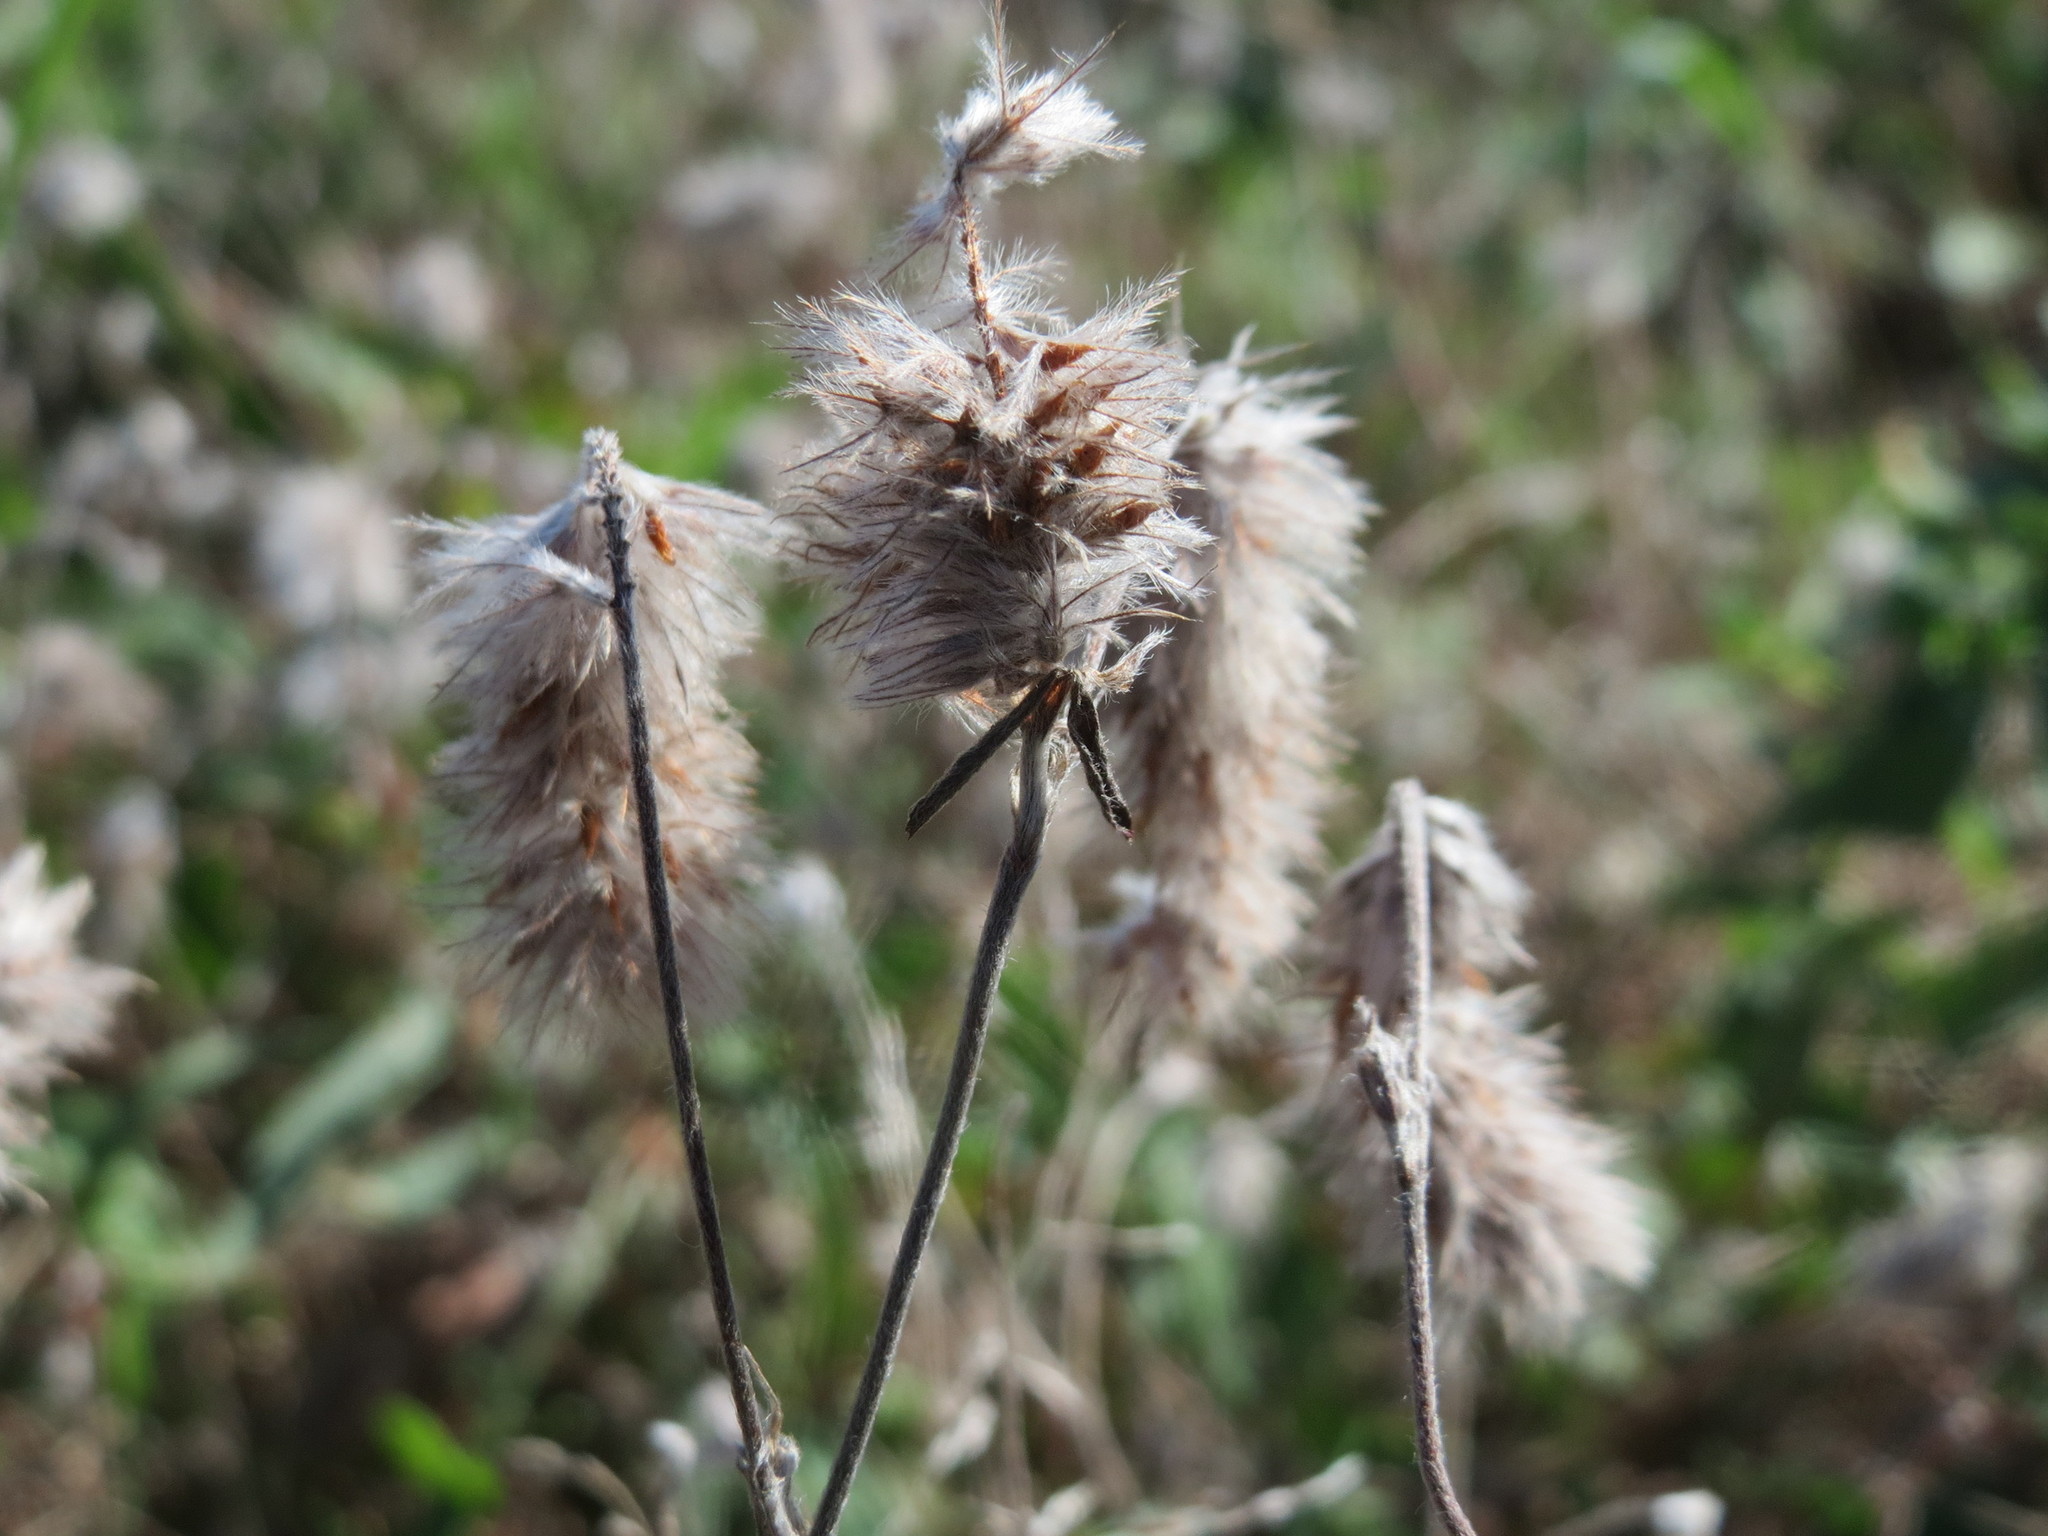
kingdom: Plantae
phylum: Tracheophyta
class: Magnoliopsida
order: Fabales
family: Fabaceae
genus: Trifolium
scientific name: Trifolium arvense
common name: Hare's-foot clover
